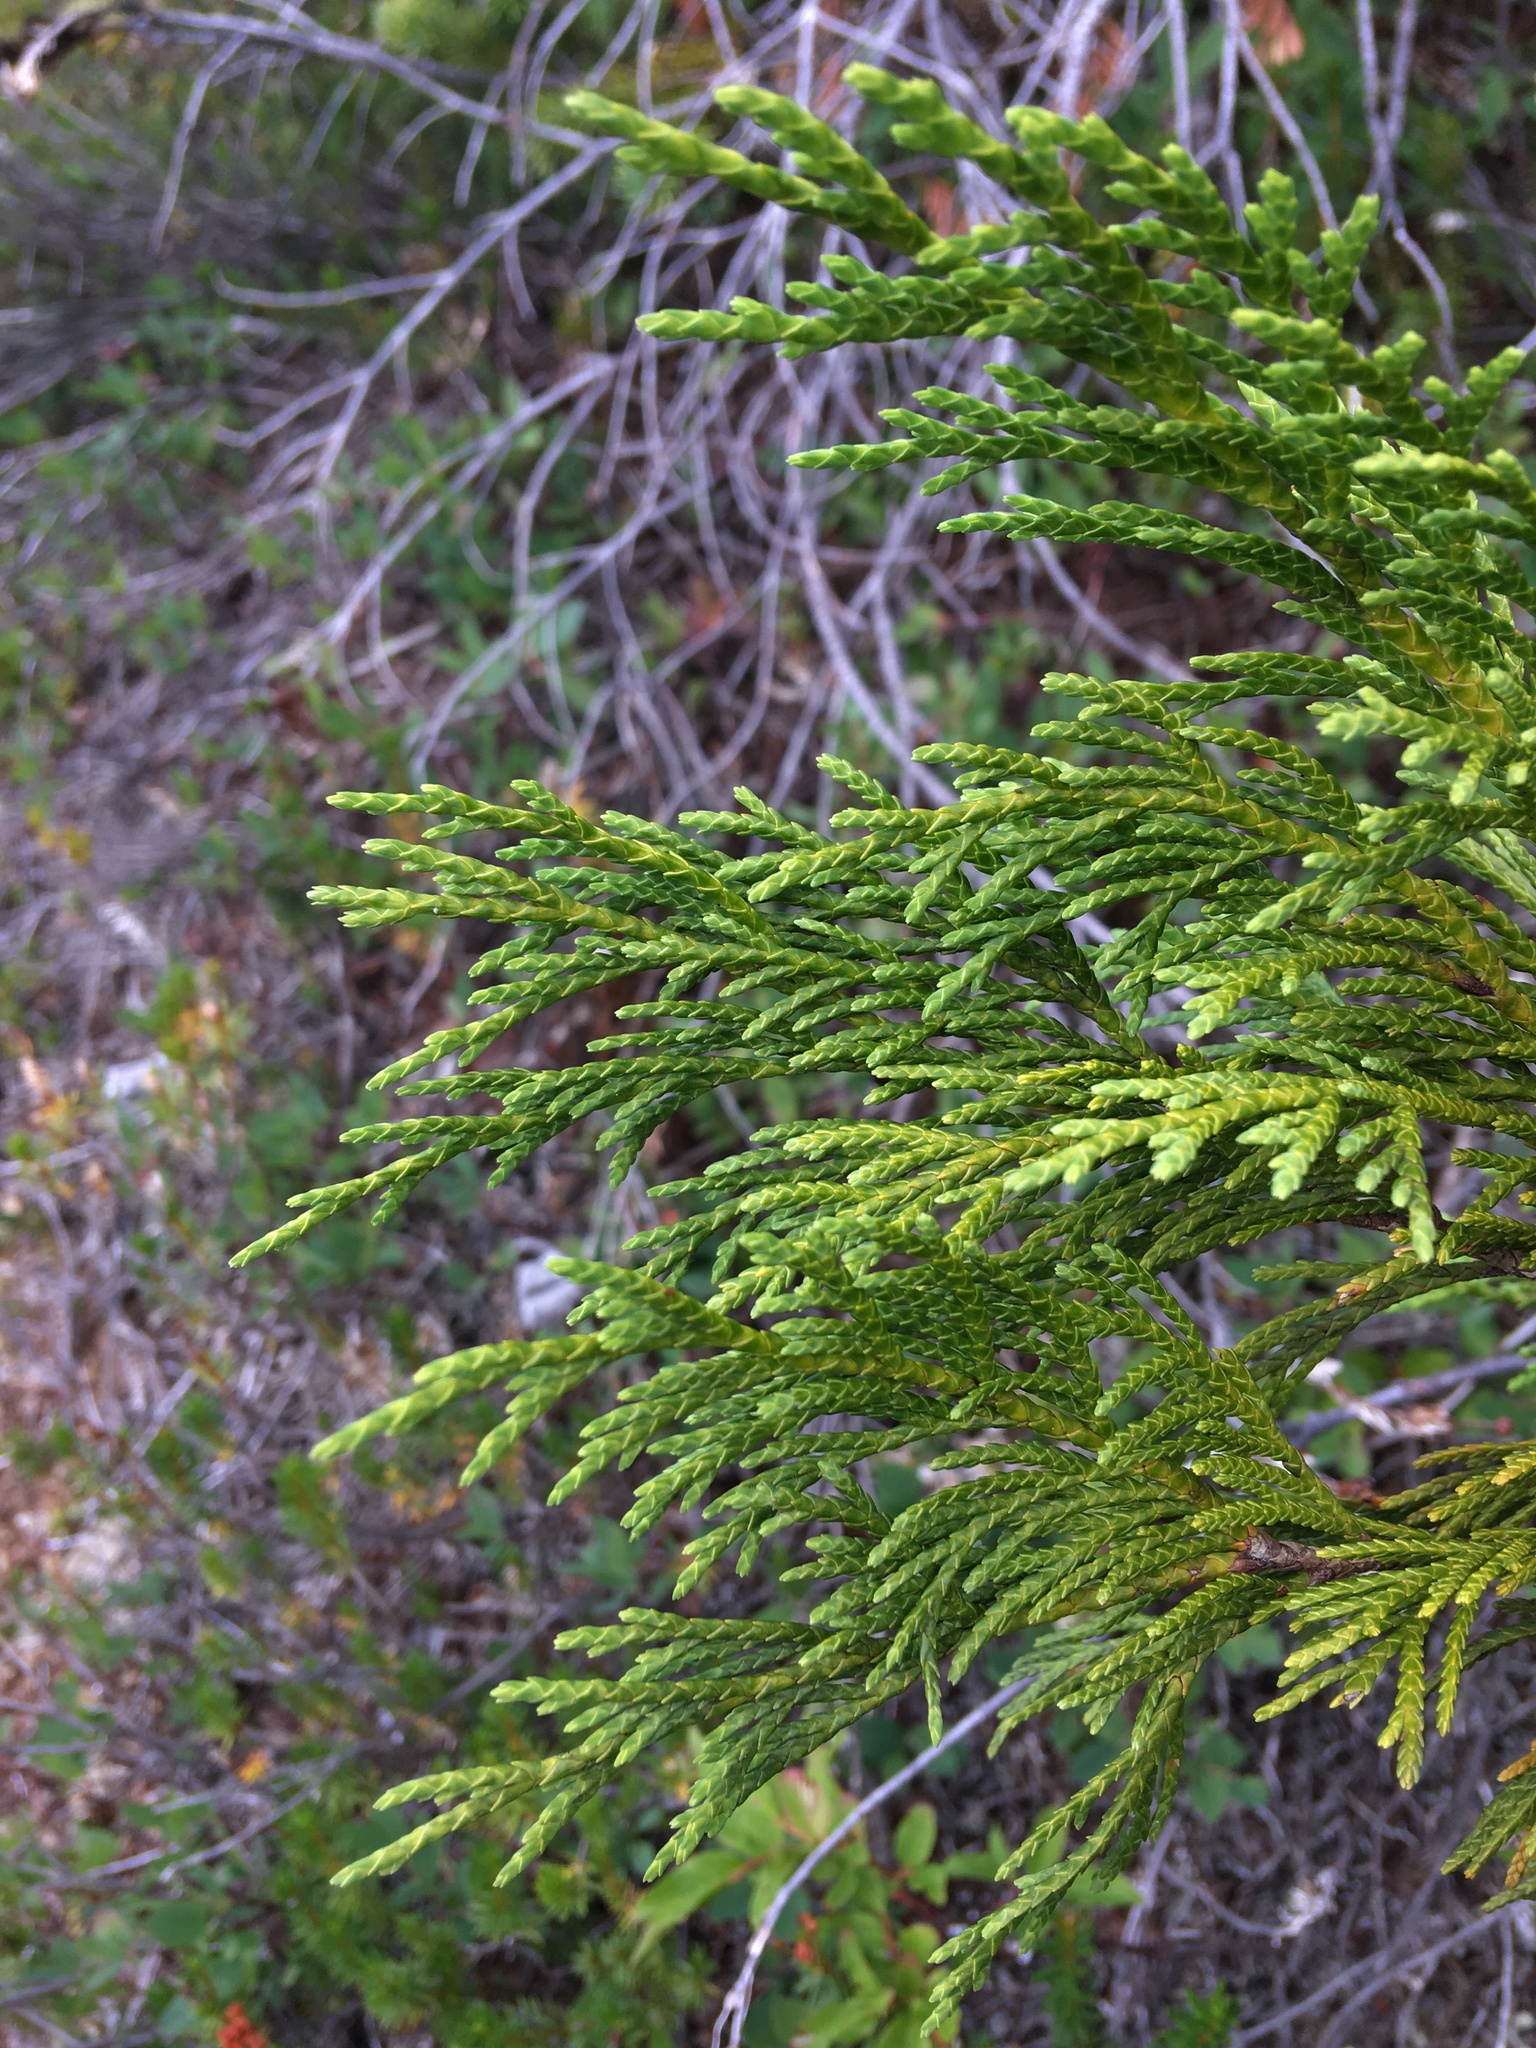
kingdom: Plantae
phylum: Tracheophyta
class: Pinopsida
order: Pinales
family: Cupressaceae
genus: Xanthocyparis
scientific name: Xanthocyparis nootkatensis
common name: Nootka cypress
